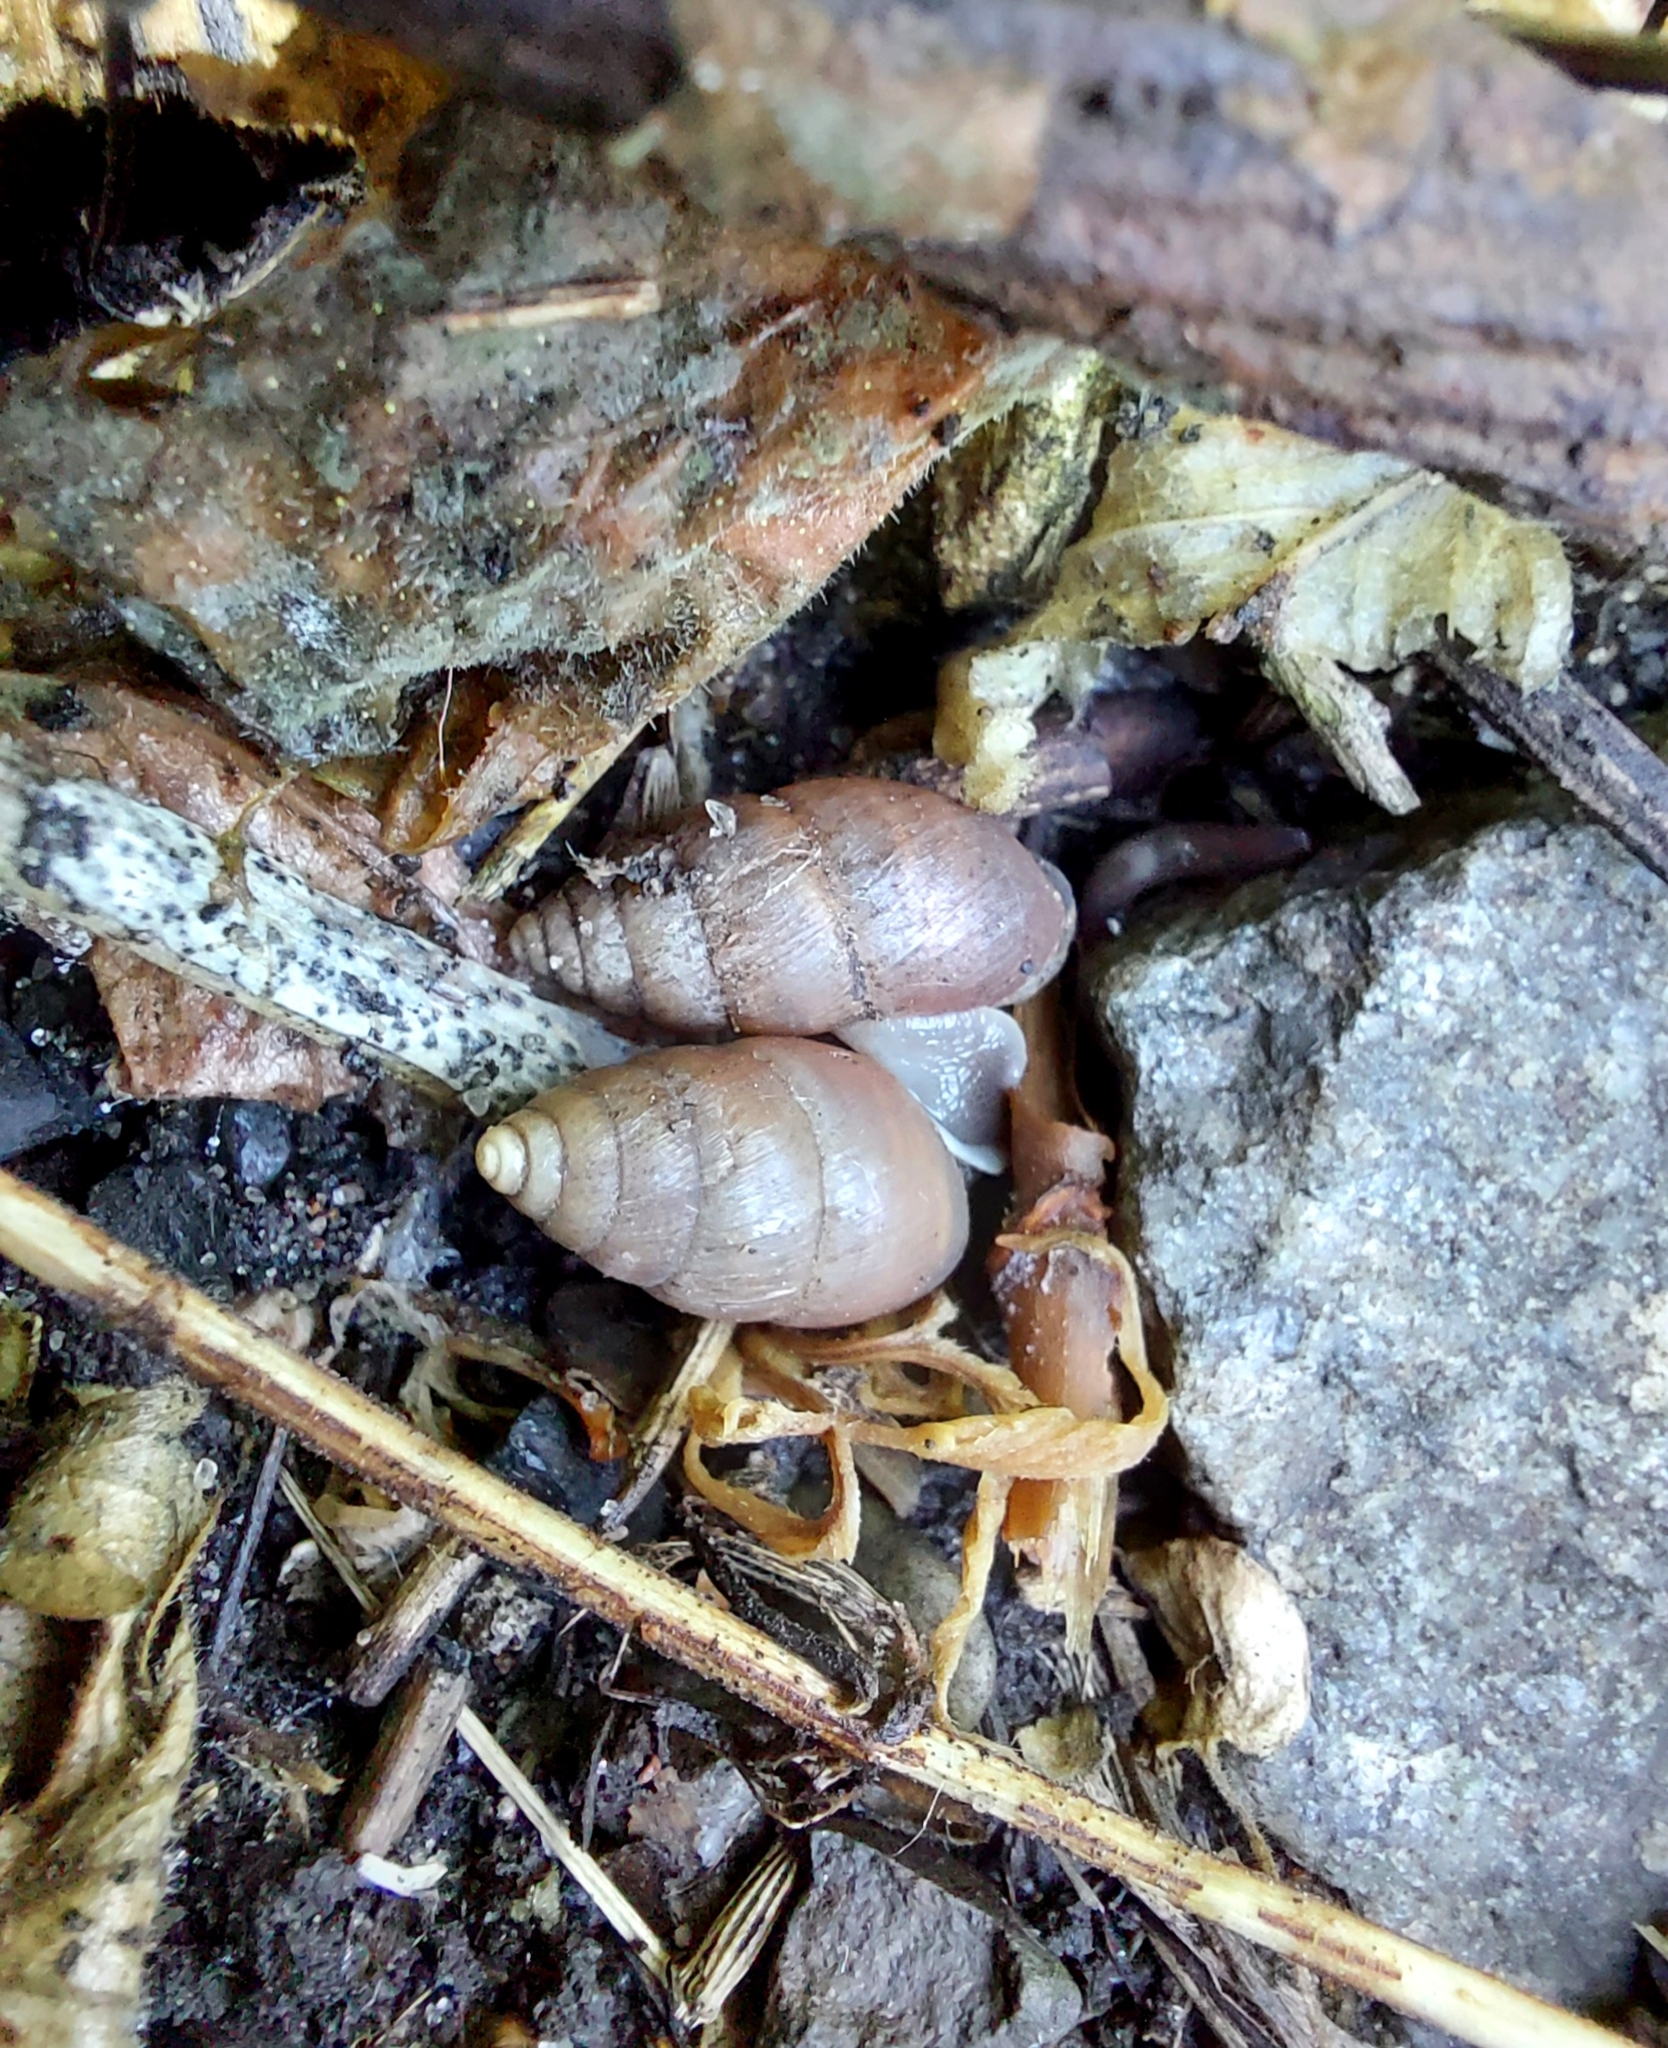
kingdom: Animalia
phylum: Mollusca
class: Gastropoda
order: Stylommatophora
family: Enidae
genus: Chondrula
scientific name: Chondrula tridens
